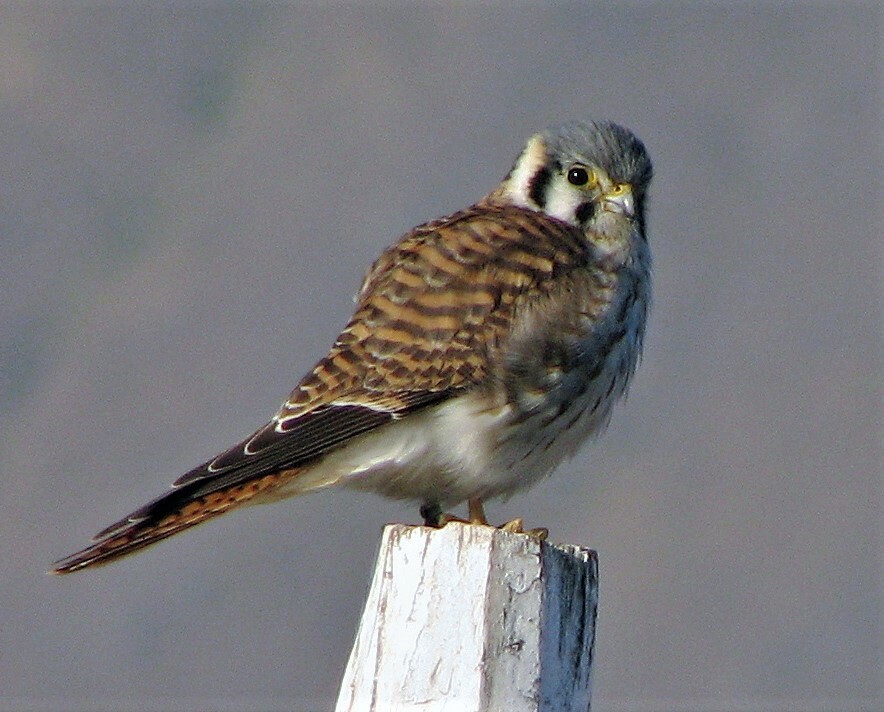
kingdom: Animalia
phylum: Chordata
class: Aves
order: Falconiformes
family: Falconidae
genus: Falco
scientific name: Falco sparverius
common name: American kestrel
